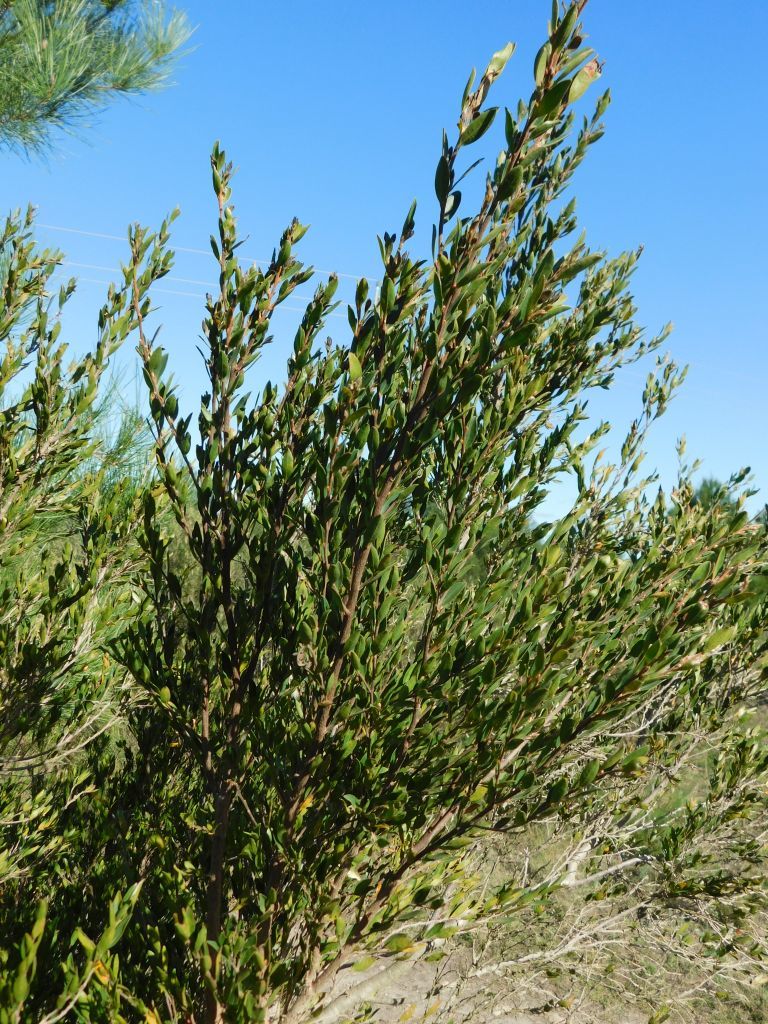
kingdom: Plantae
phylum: Tracheophyta
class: Magnoliopsida
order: Ericales
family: Ebenaceae
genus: Diospyros
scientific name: Diospyros glabra
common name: Fynbos star apple
